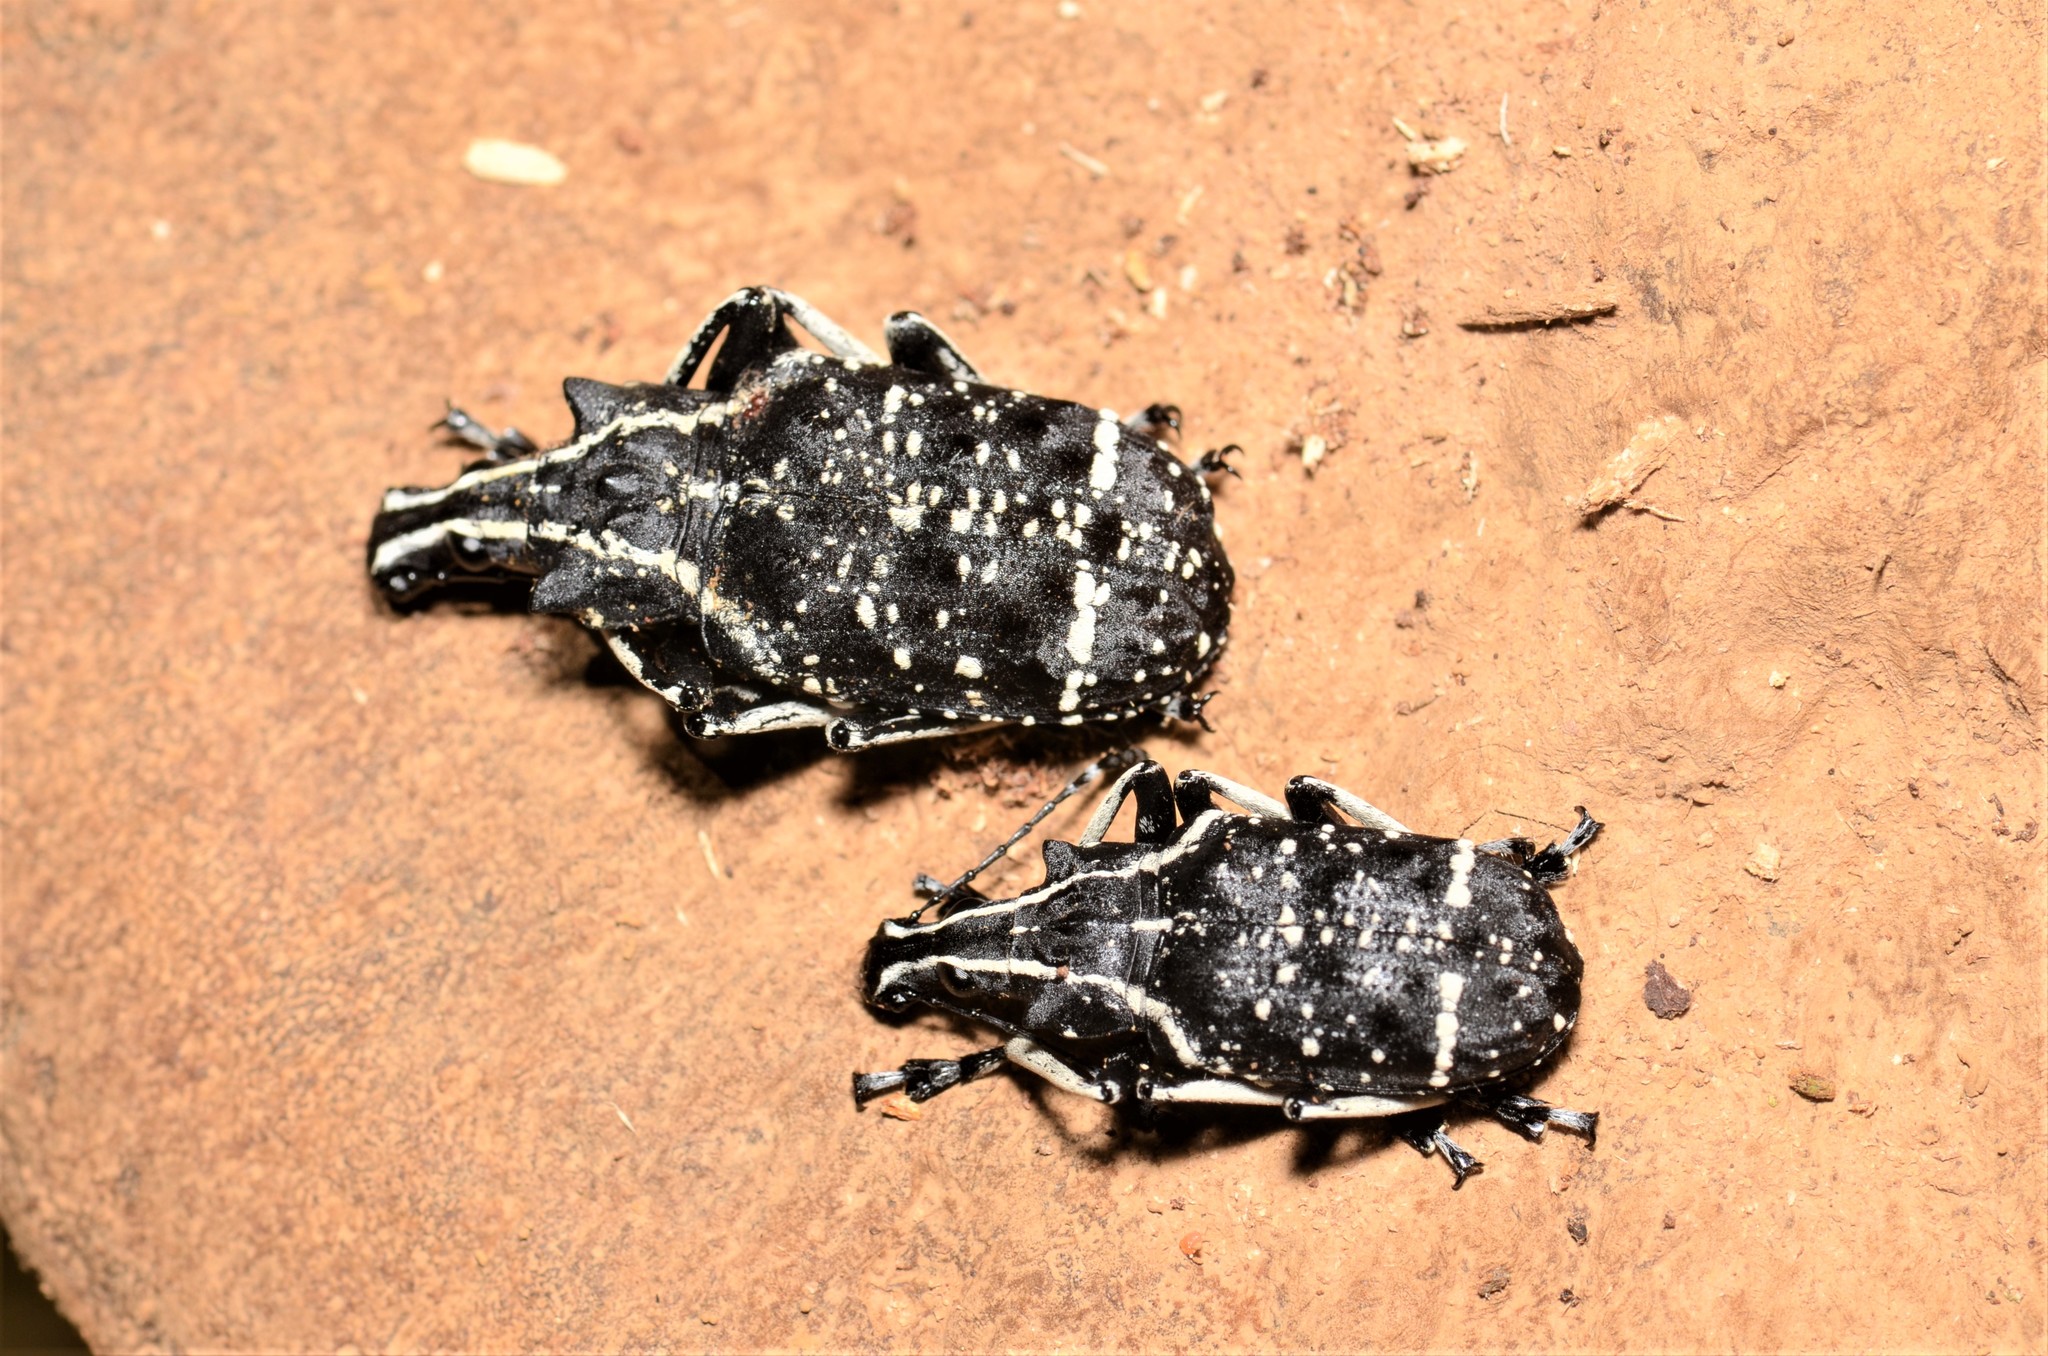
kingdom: Animalia
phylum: Arthropoda
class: Insecta
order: Coleoptera
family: Anthribidae
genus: Tophoderes
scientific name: Tophoderes frenatus
